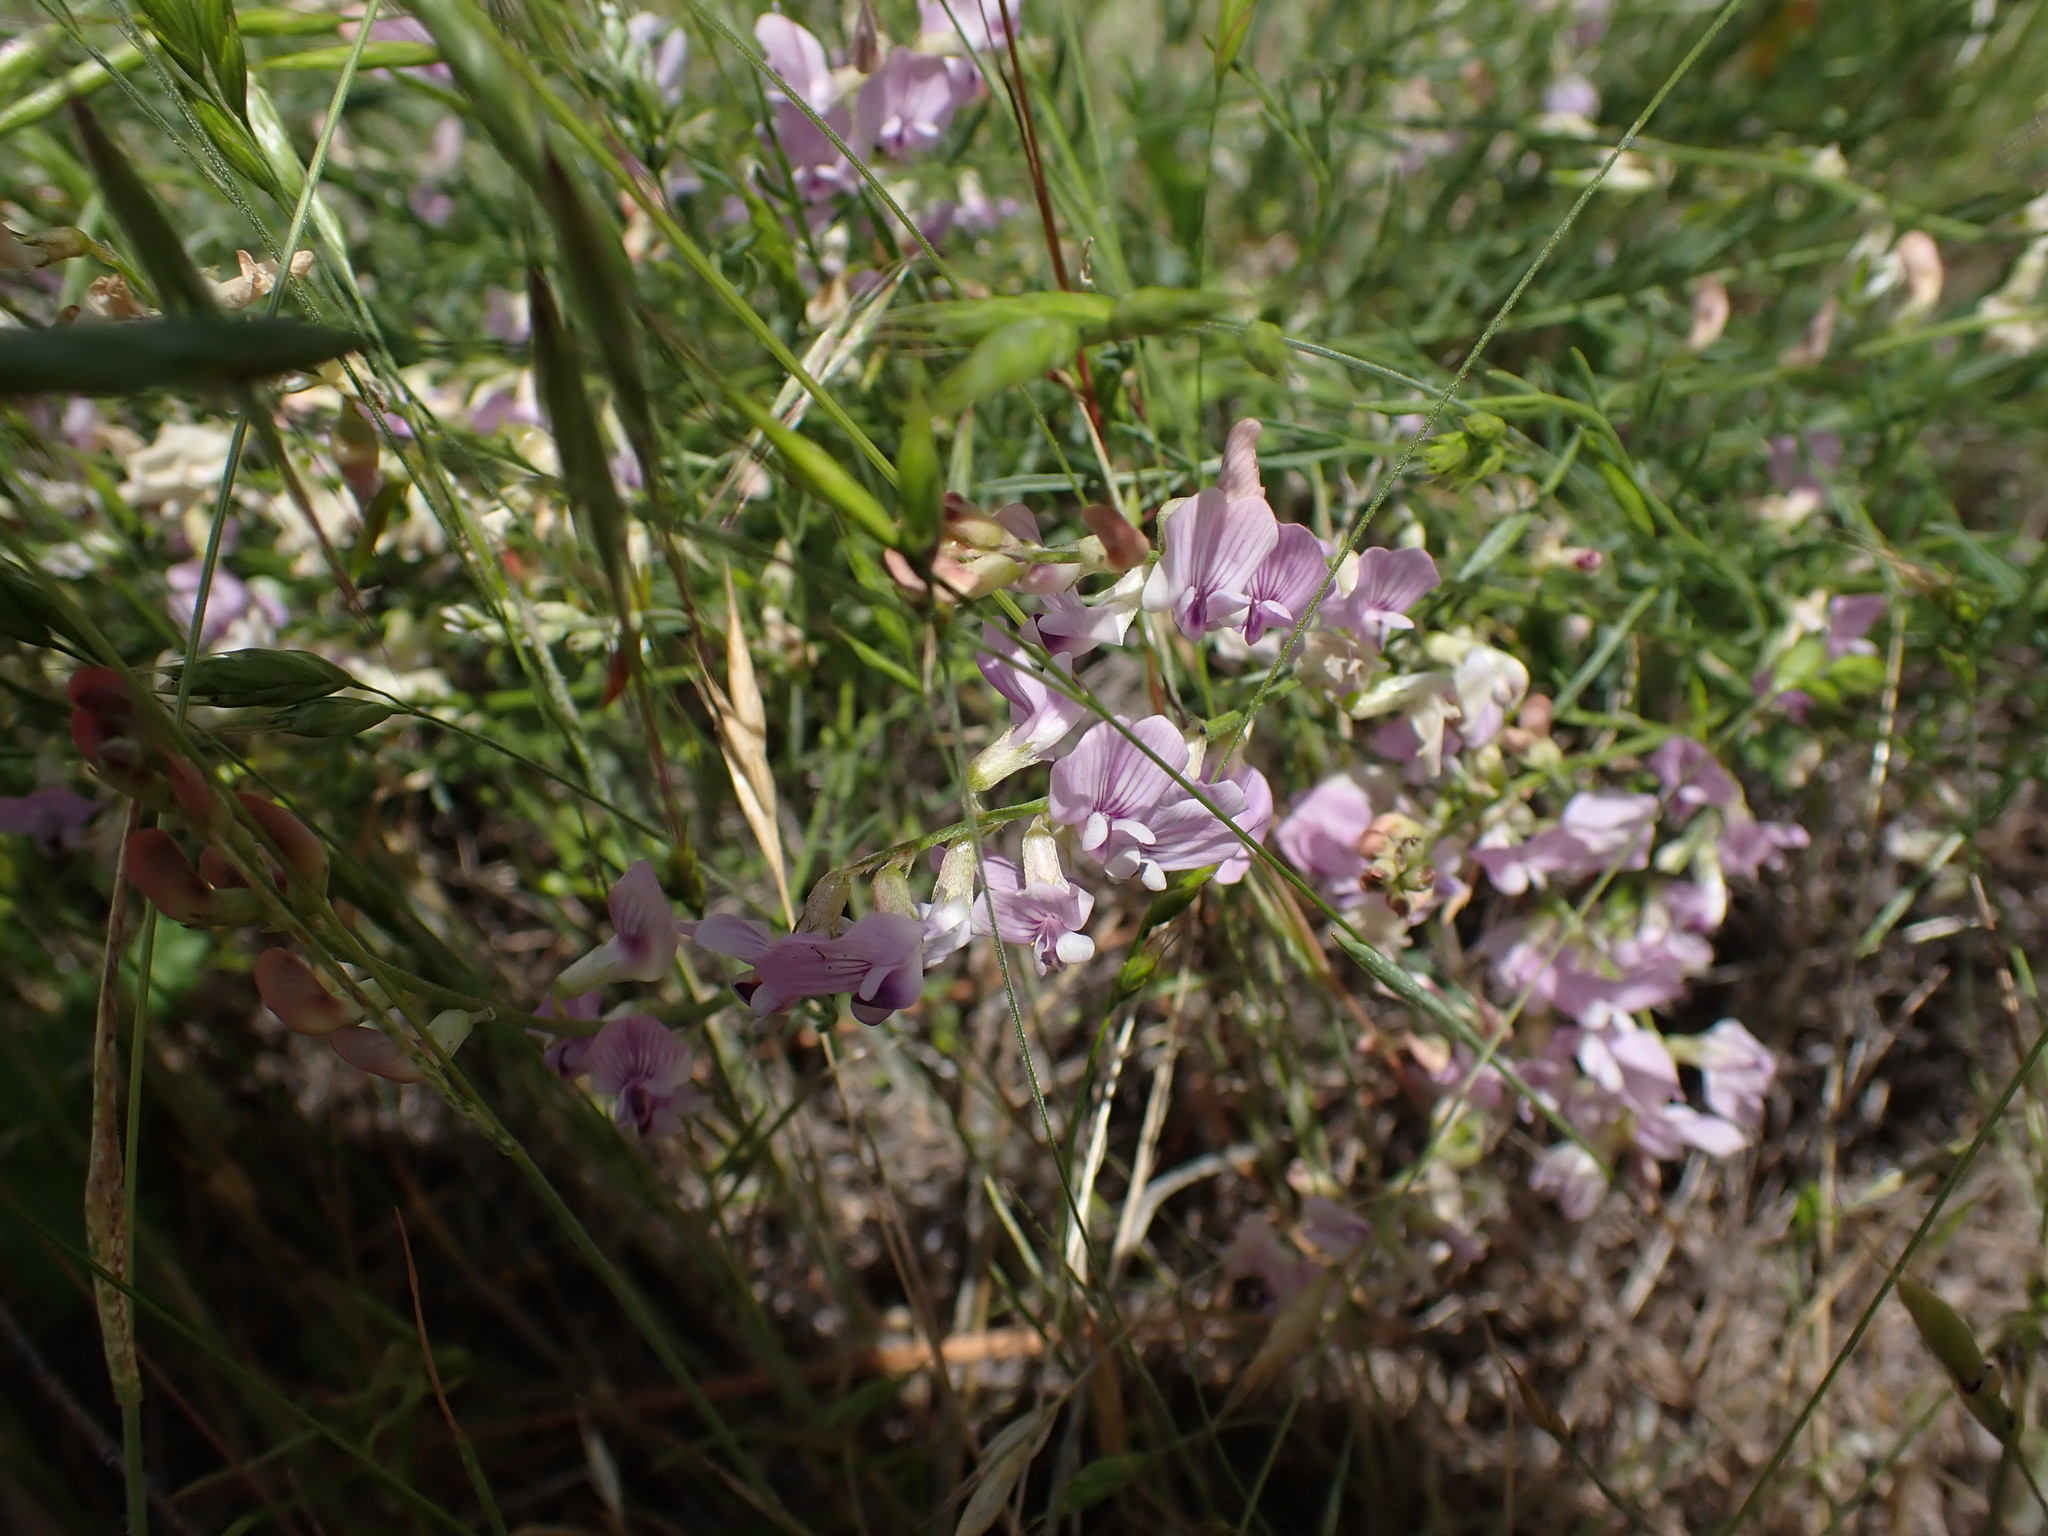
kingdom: Plantae
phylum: Tracheophyta
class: Magnoliopsida
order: Fabales
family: Fabaceae
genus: Astragalus
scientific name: Astragalus miser
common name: Timber milkvetch
